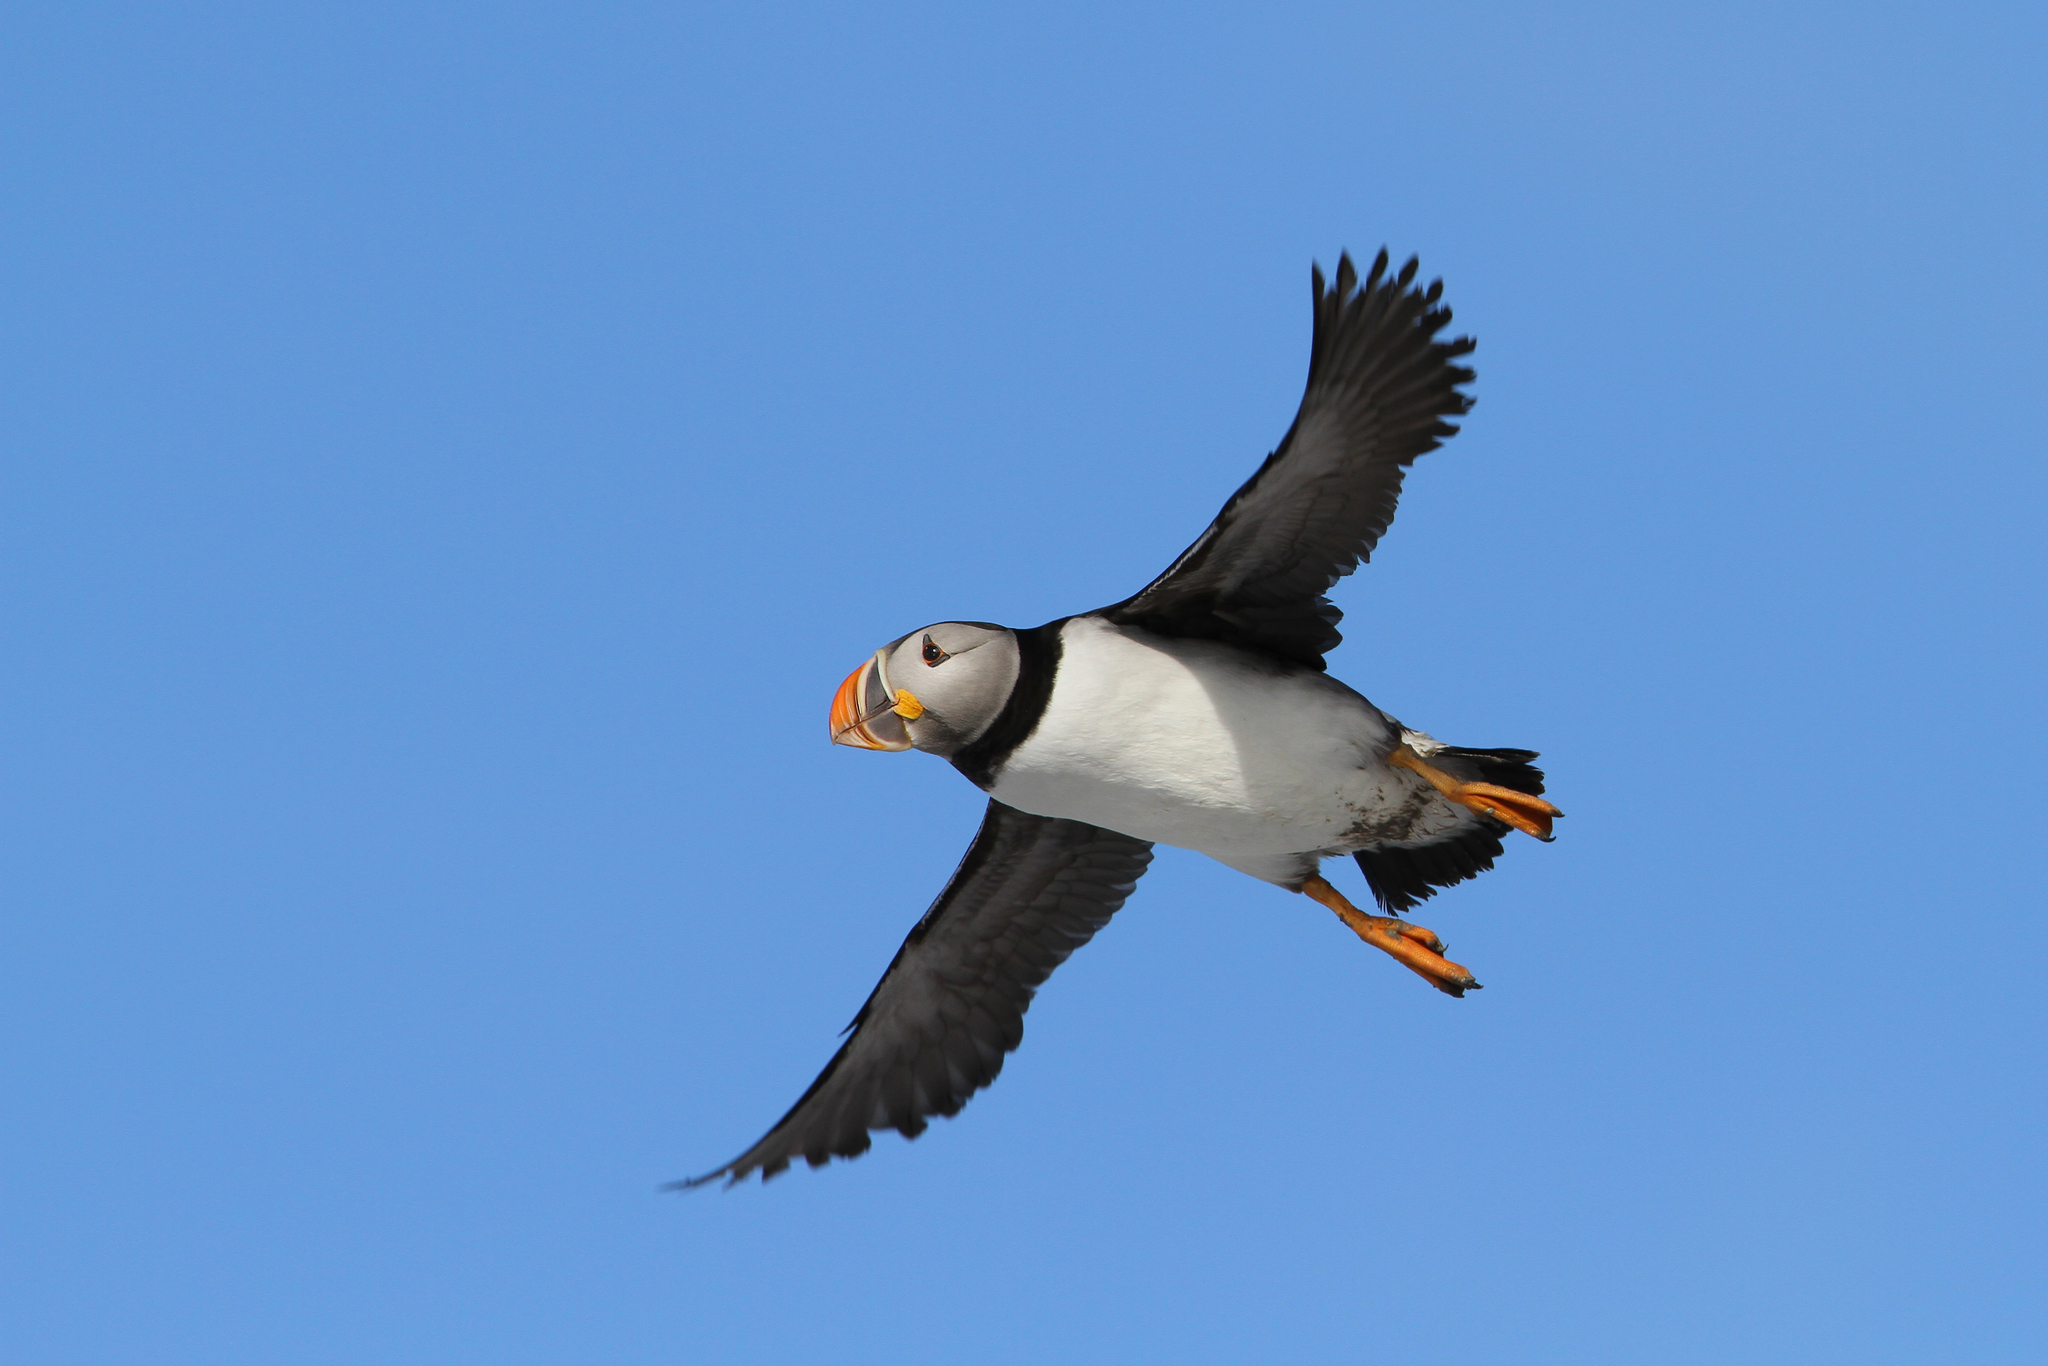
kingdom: Animalia
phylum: Chordata
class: Aves
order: Charadriiformes
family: Alcidae
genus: Fratercula
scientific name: Fratercula arctica
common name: Atlantic puffin
